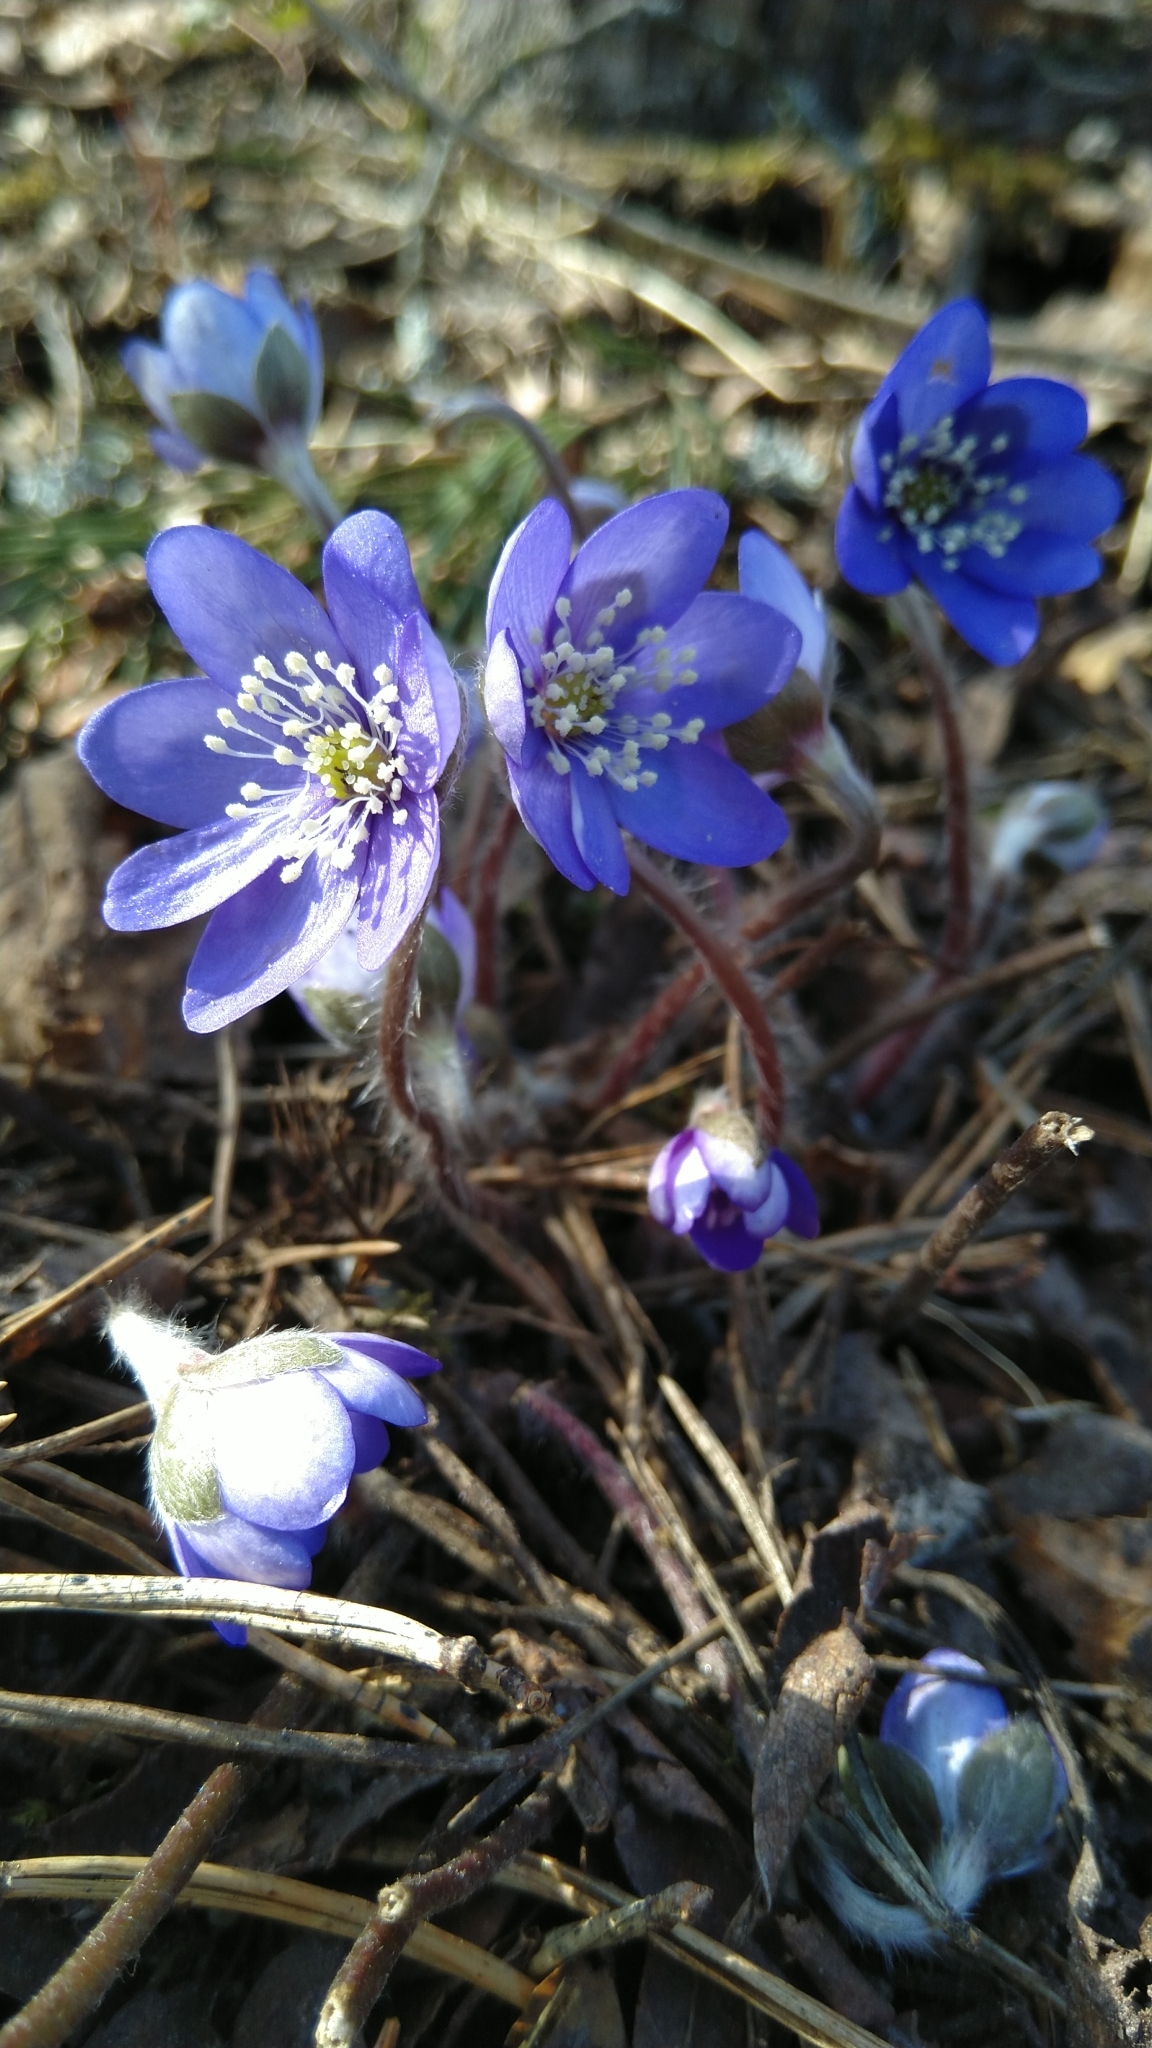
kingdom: Plantae
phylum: Tracheophyta
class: Magnoliopsida
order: Ranunculales
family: Ranunculaceae
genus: Hepatica
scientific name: Hepatica nobilis
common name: Liverleaf
